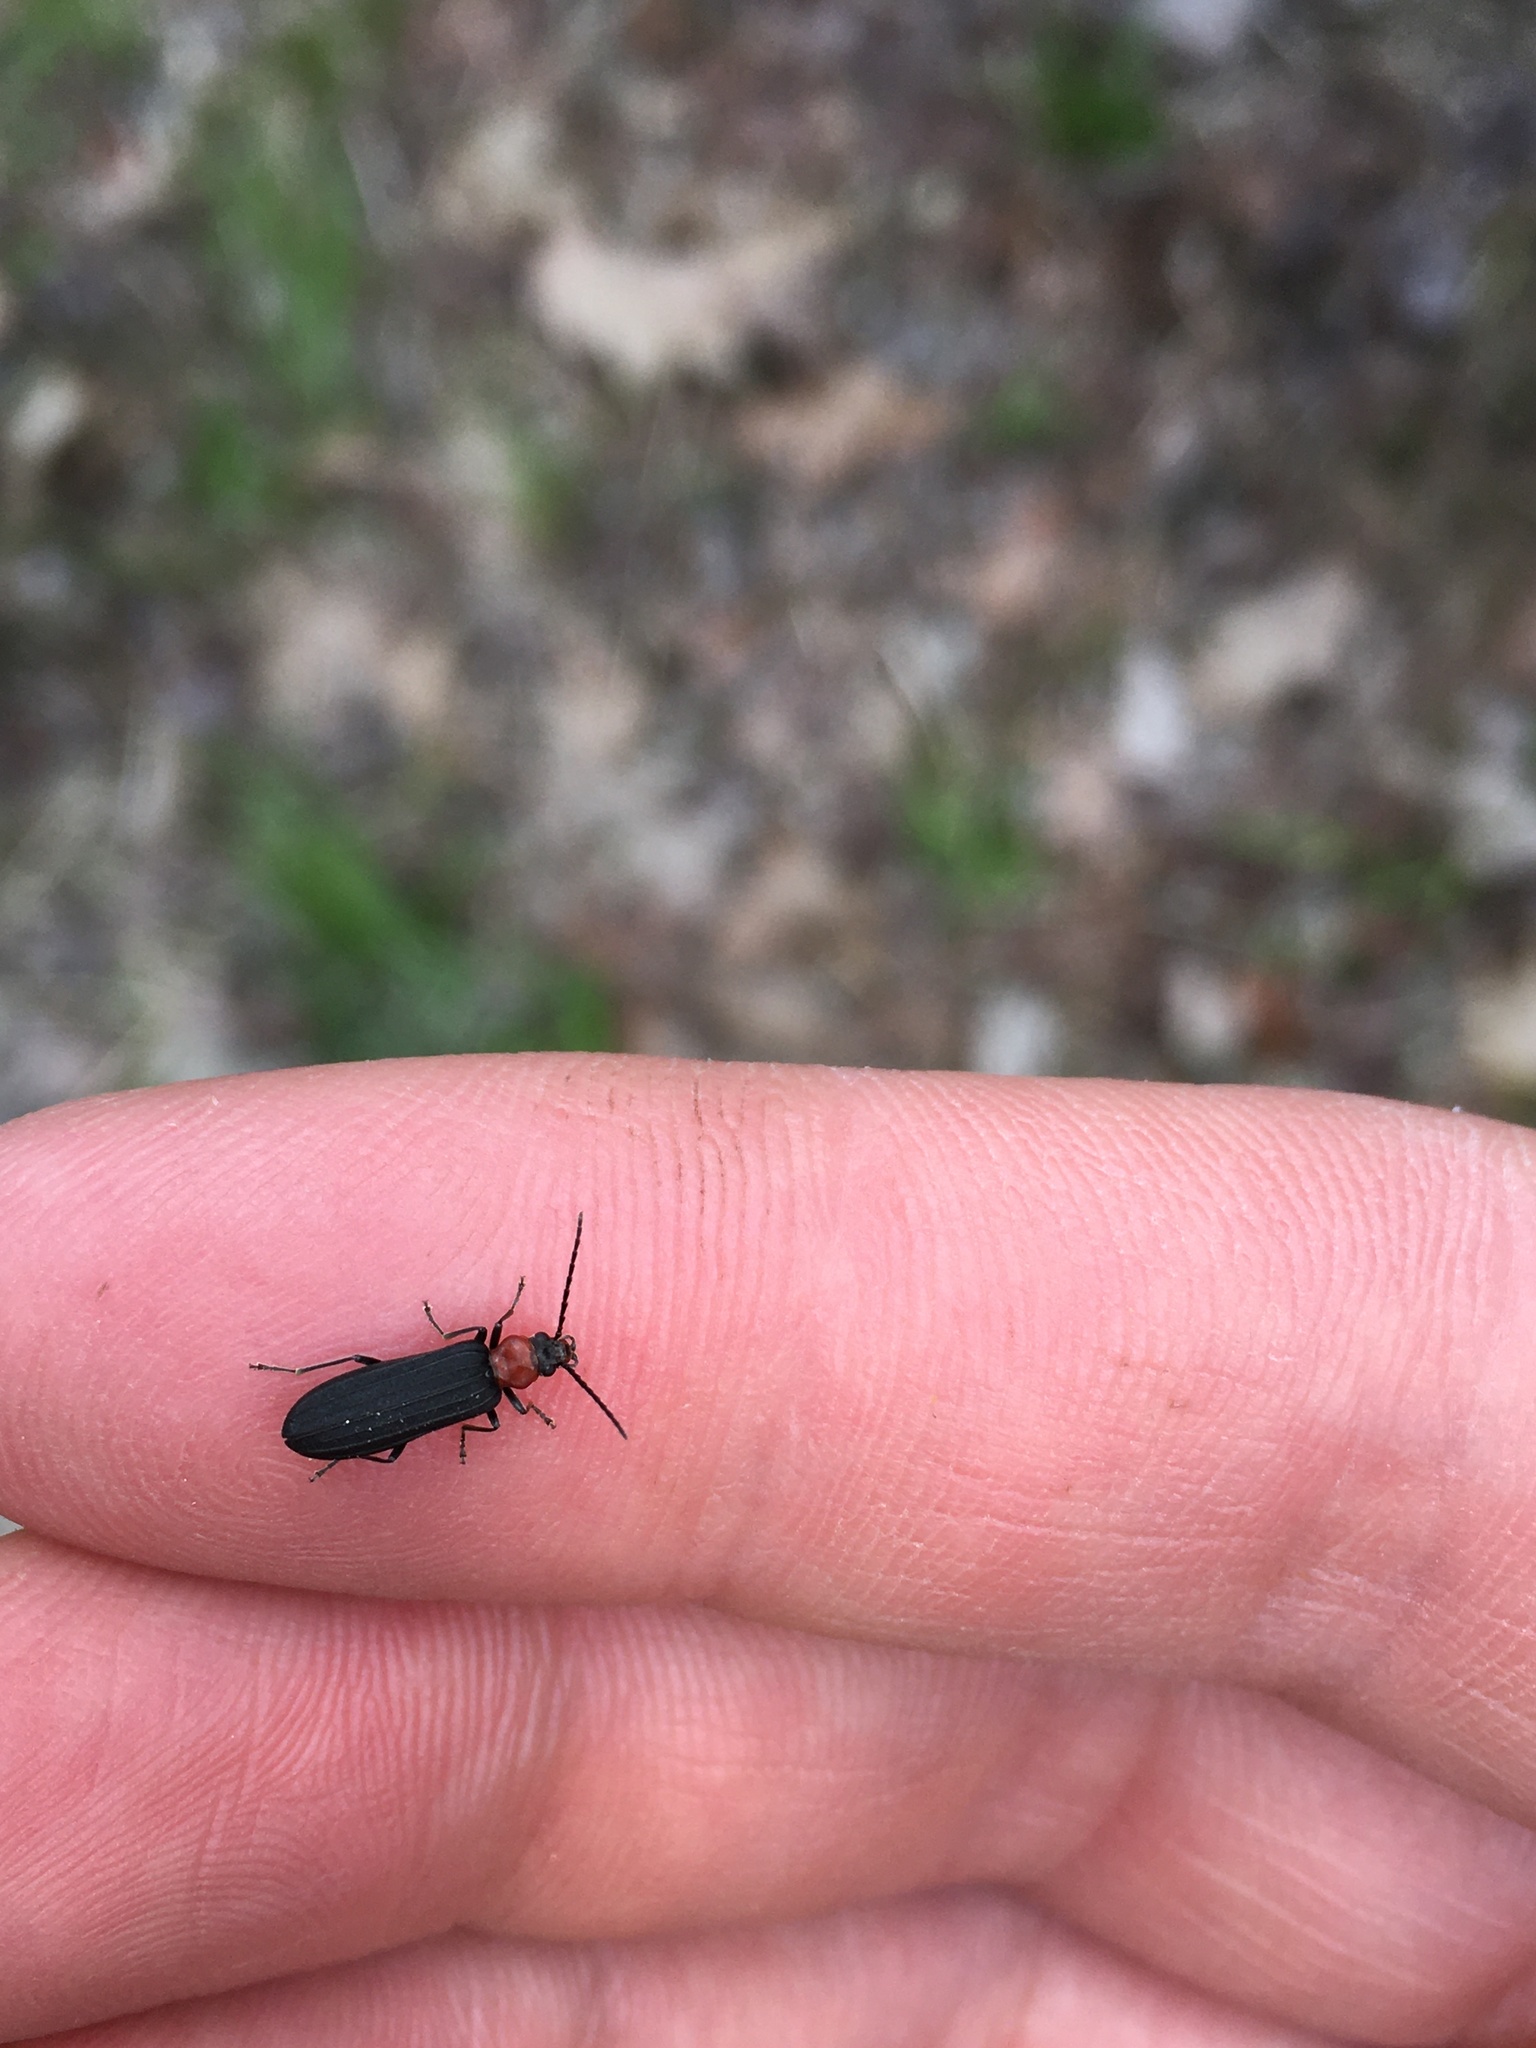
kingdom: Animalia
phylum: Arthropoda
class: Insecta
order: Coleoptera
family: Oedemeridae
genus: Ischnomera
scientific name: Ischnomera
